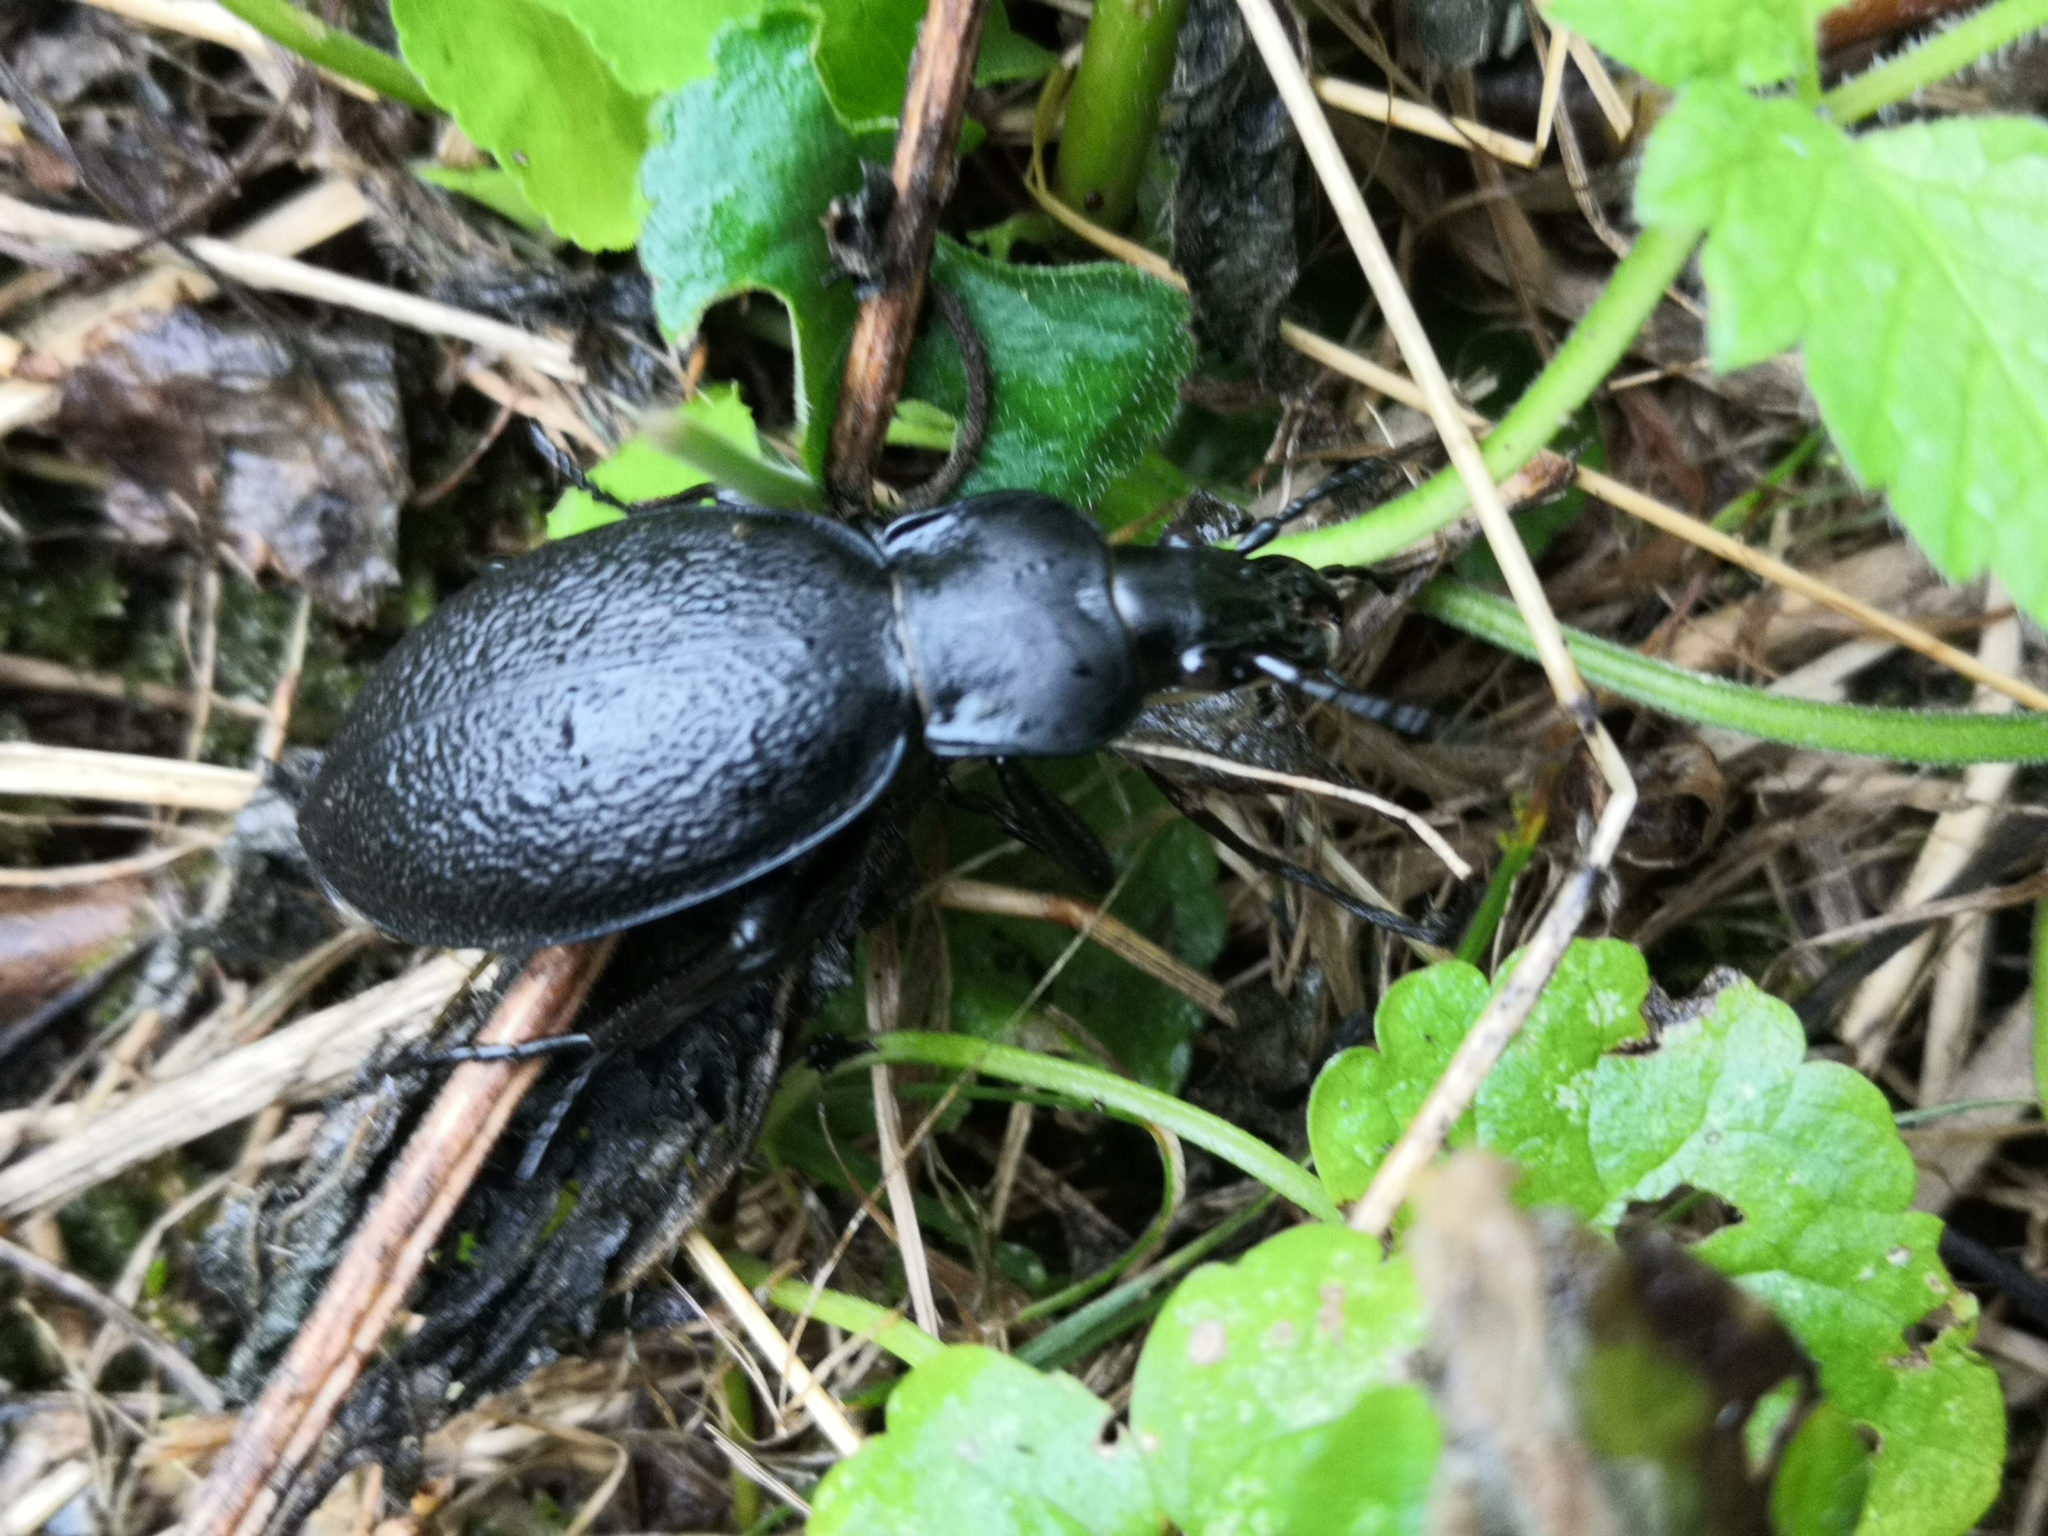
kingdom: Animalia
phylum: Arthropoda
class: Insecta
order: Coleoptera
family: Carabidae
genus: Carabus
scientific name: Carabus coriaceus
